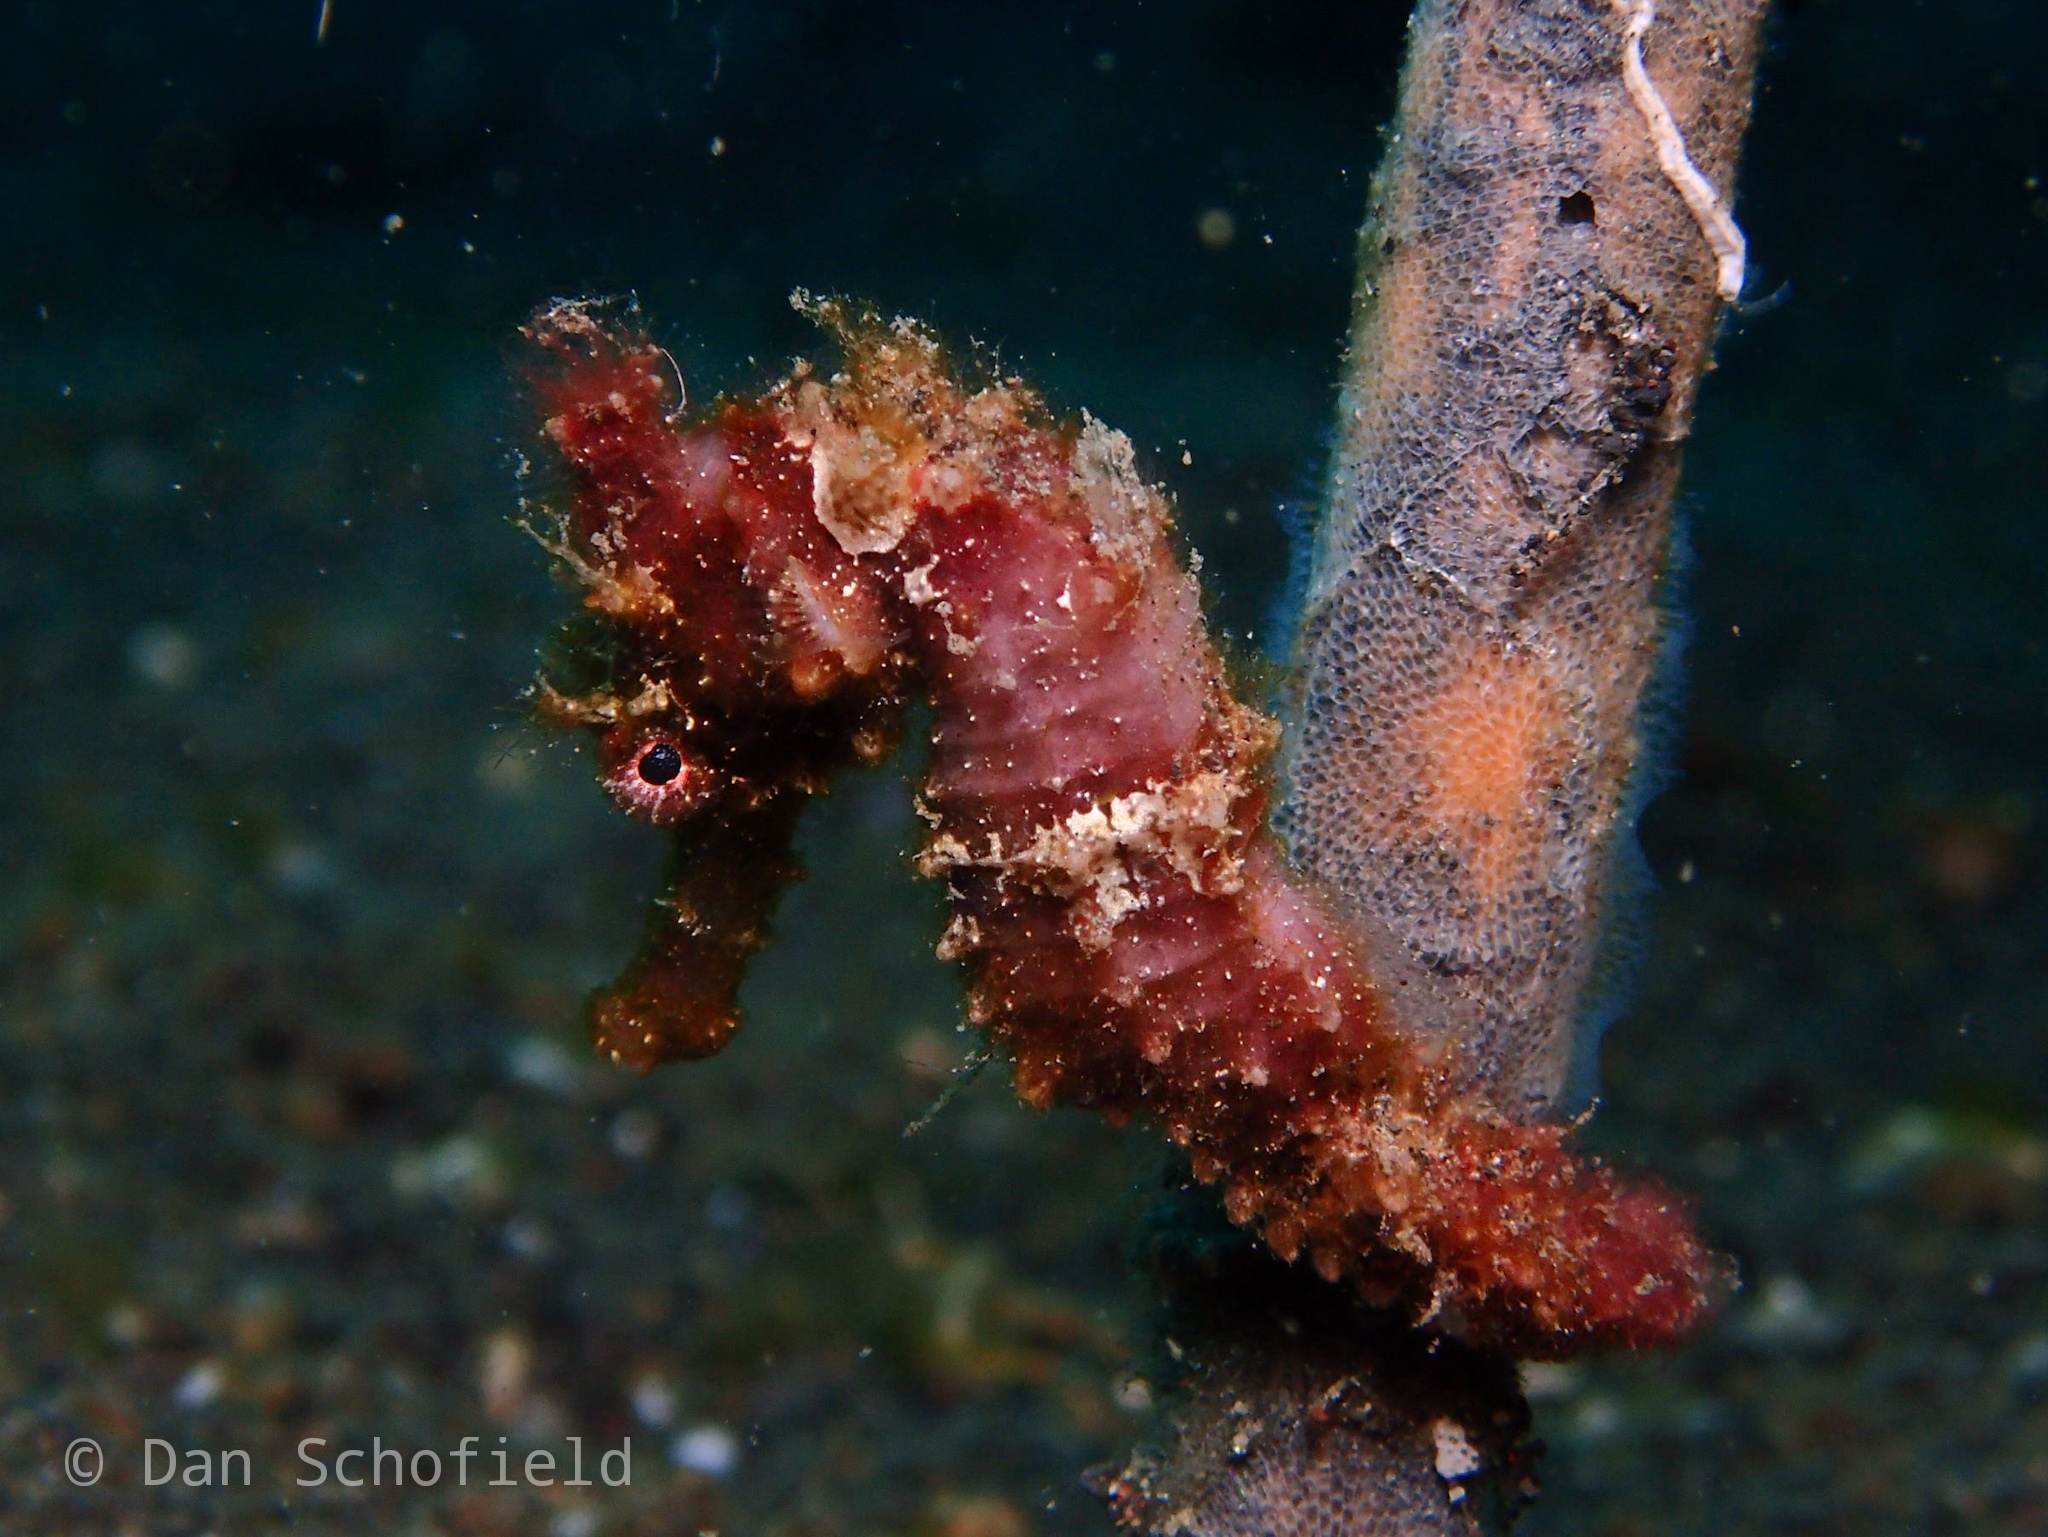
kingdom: Animalia
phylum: Chordata
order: Syngnathiformes
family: Syngnathidae
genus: Hippocampus
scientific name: Hippocampus spinosissimus
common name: Hedgehog seahorse
